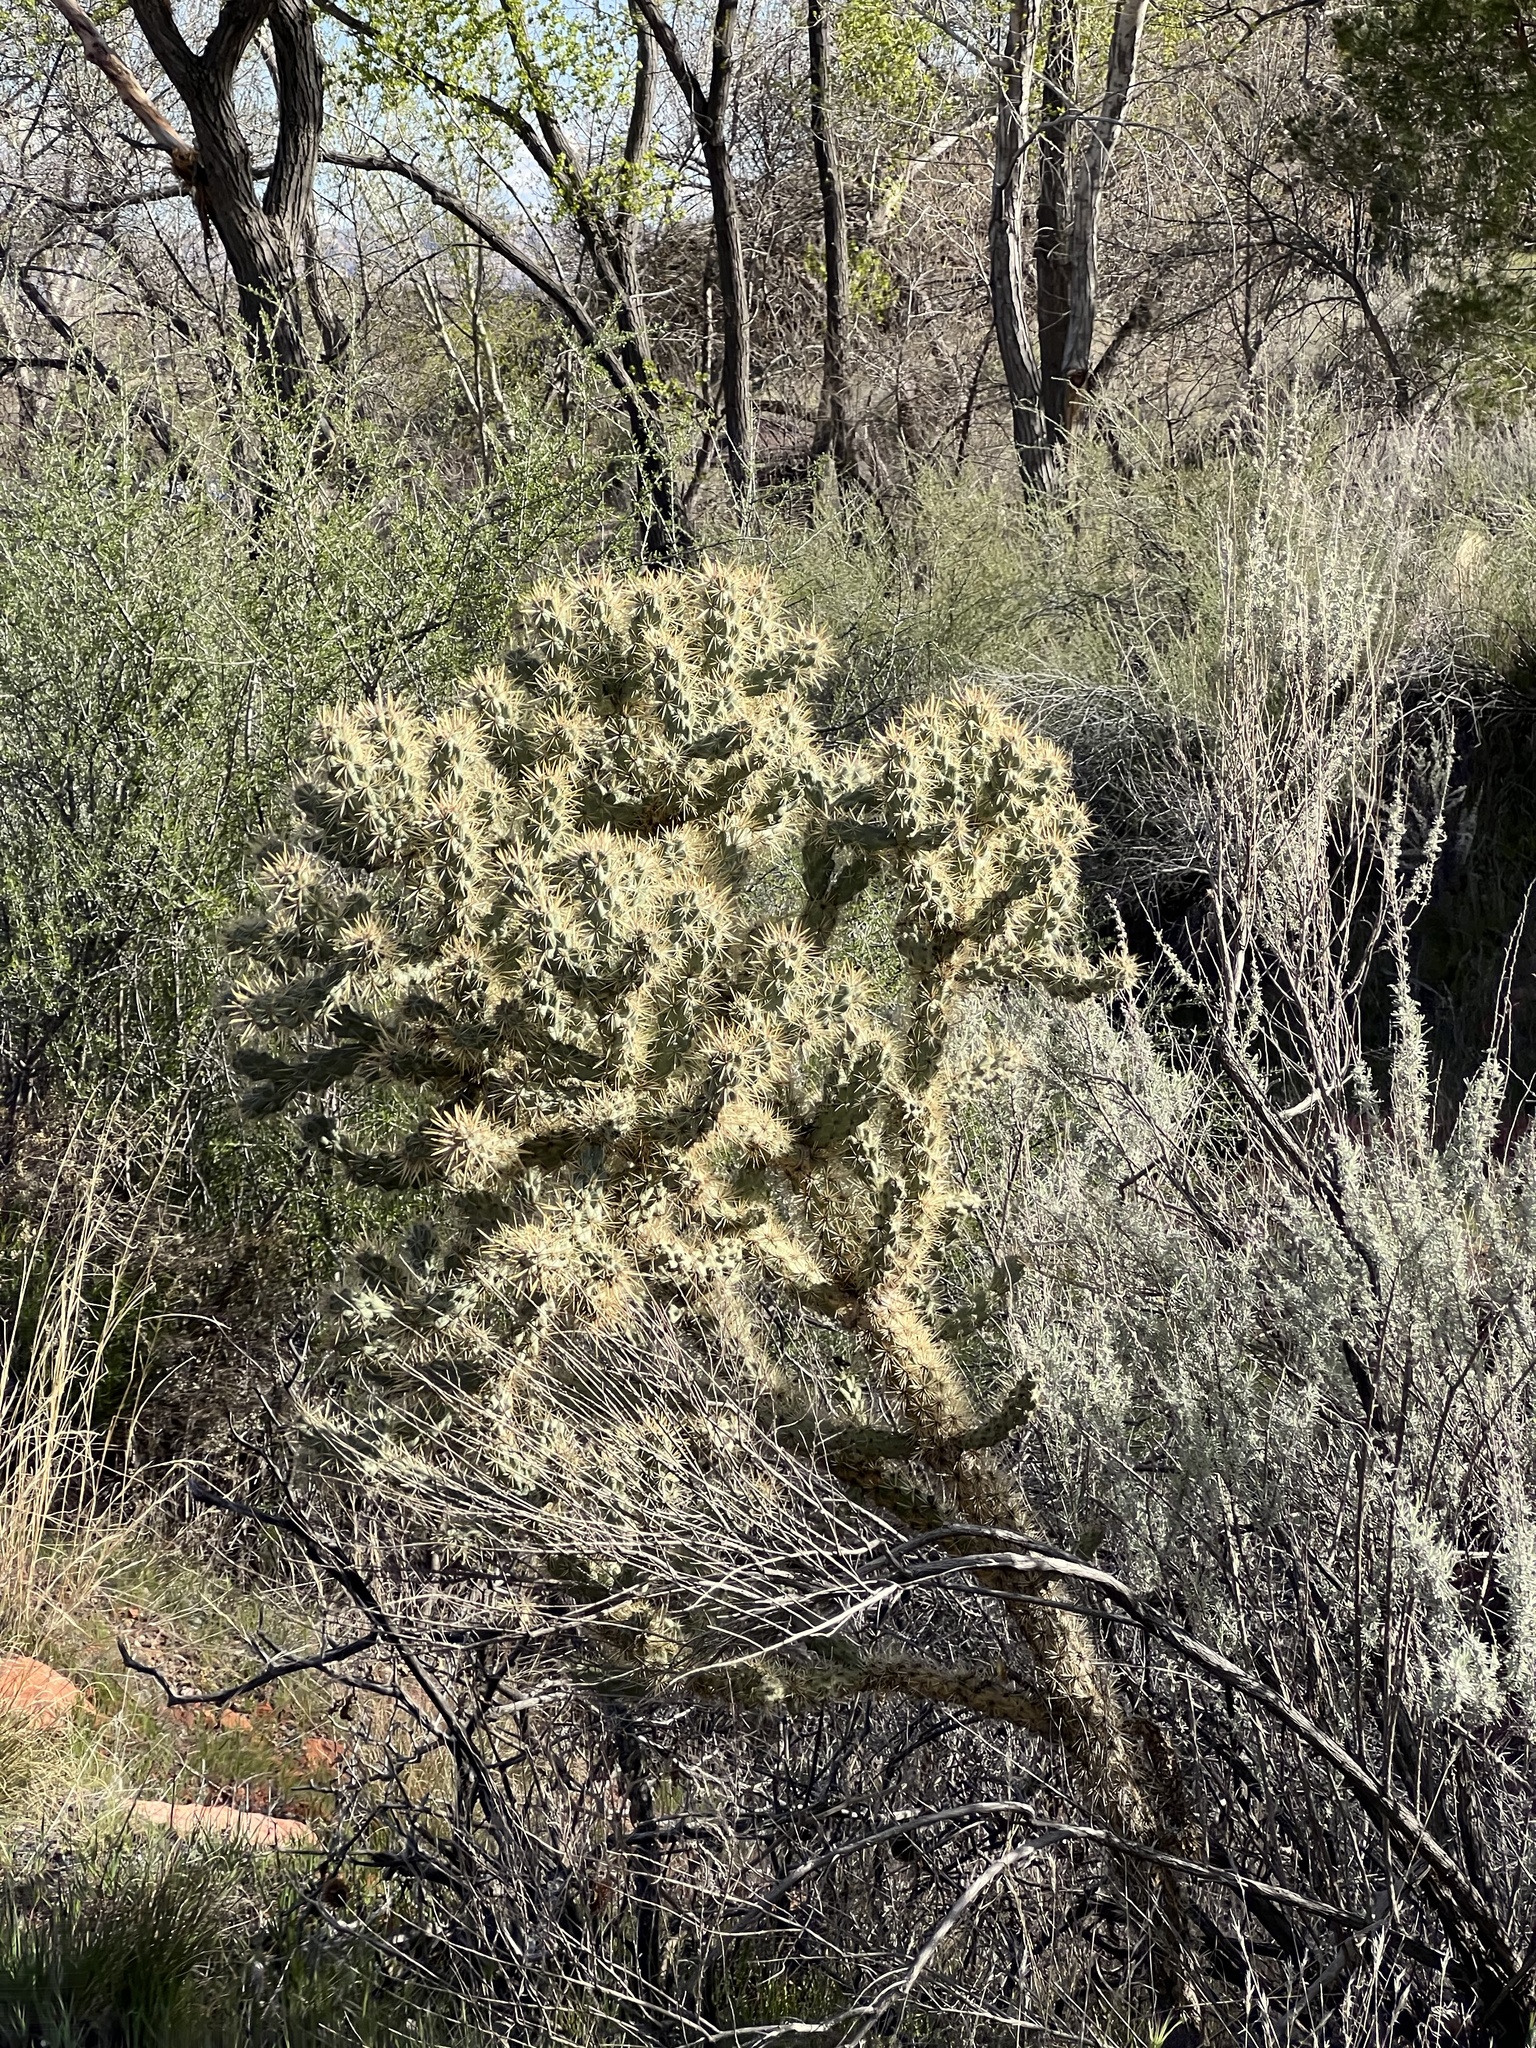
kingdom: Plantae
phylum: Tracheophyta
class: Magnoliopsida
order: Caryophyllales
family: Cactaceae
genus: Cylindropuntia
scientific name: Cylindropuntia echinocarpa
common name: Ground cholla
